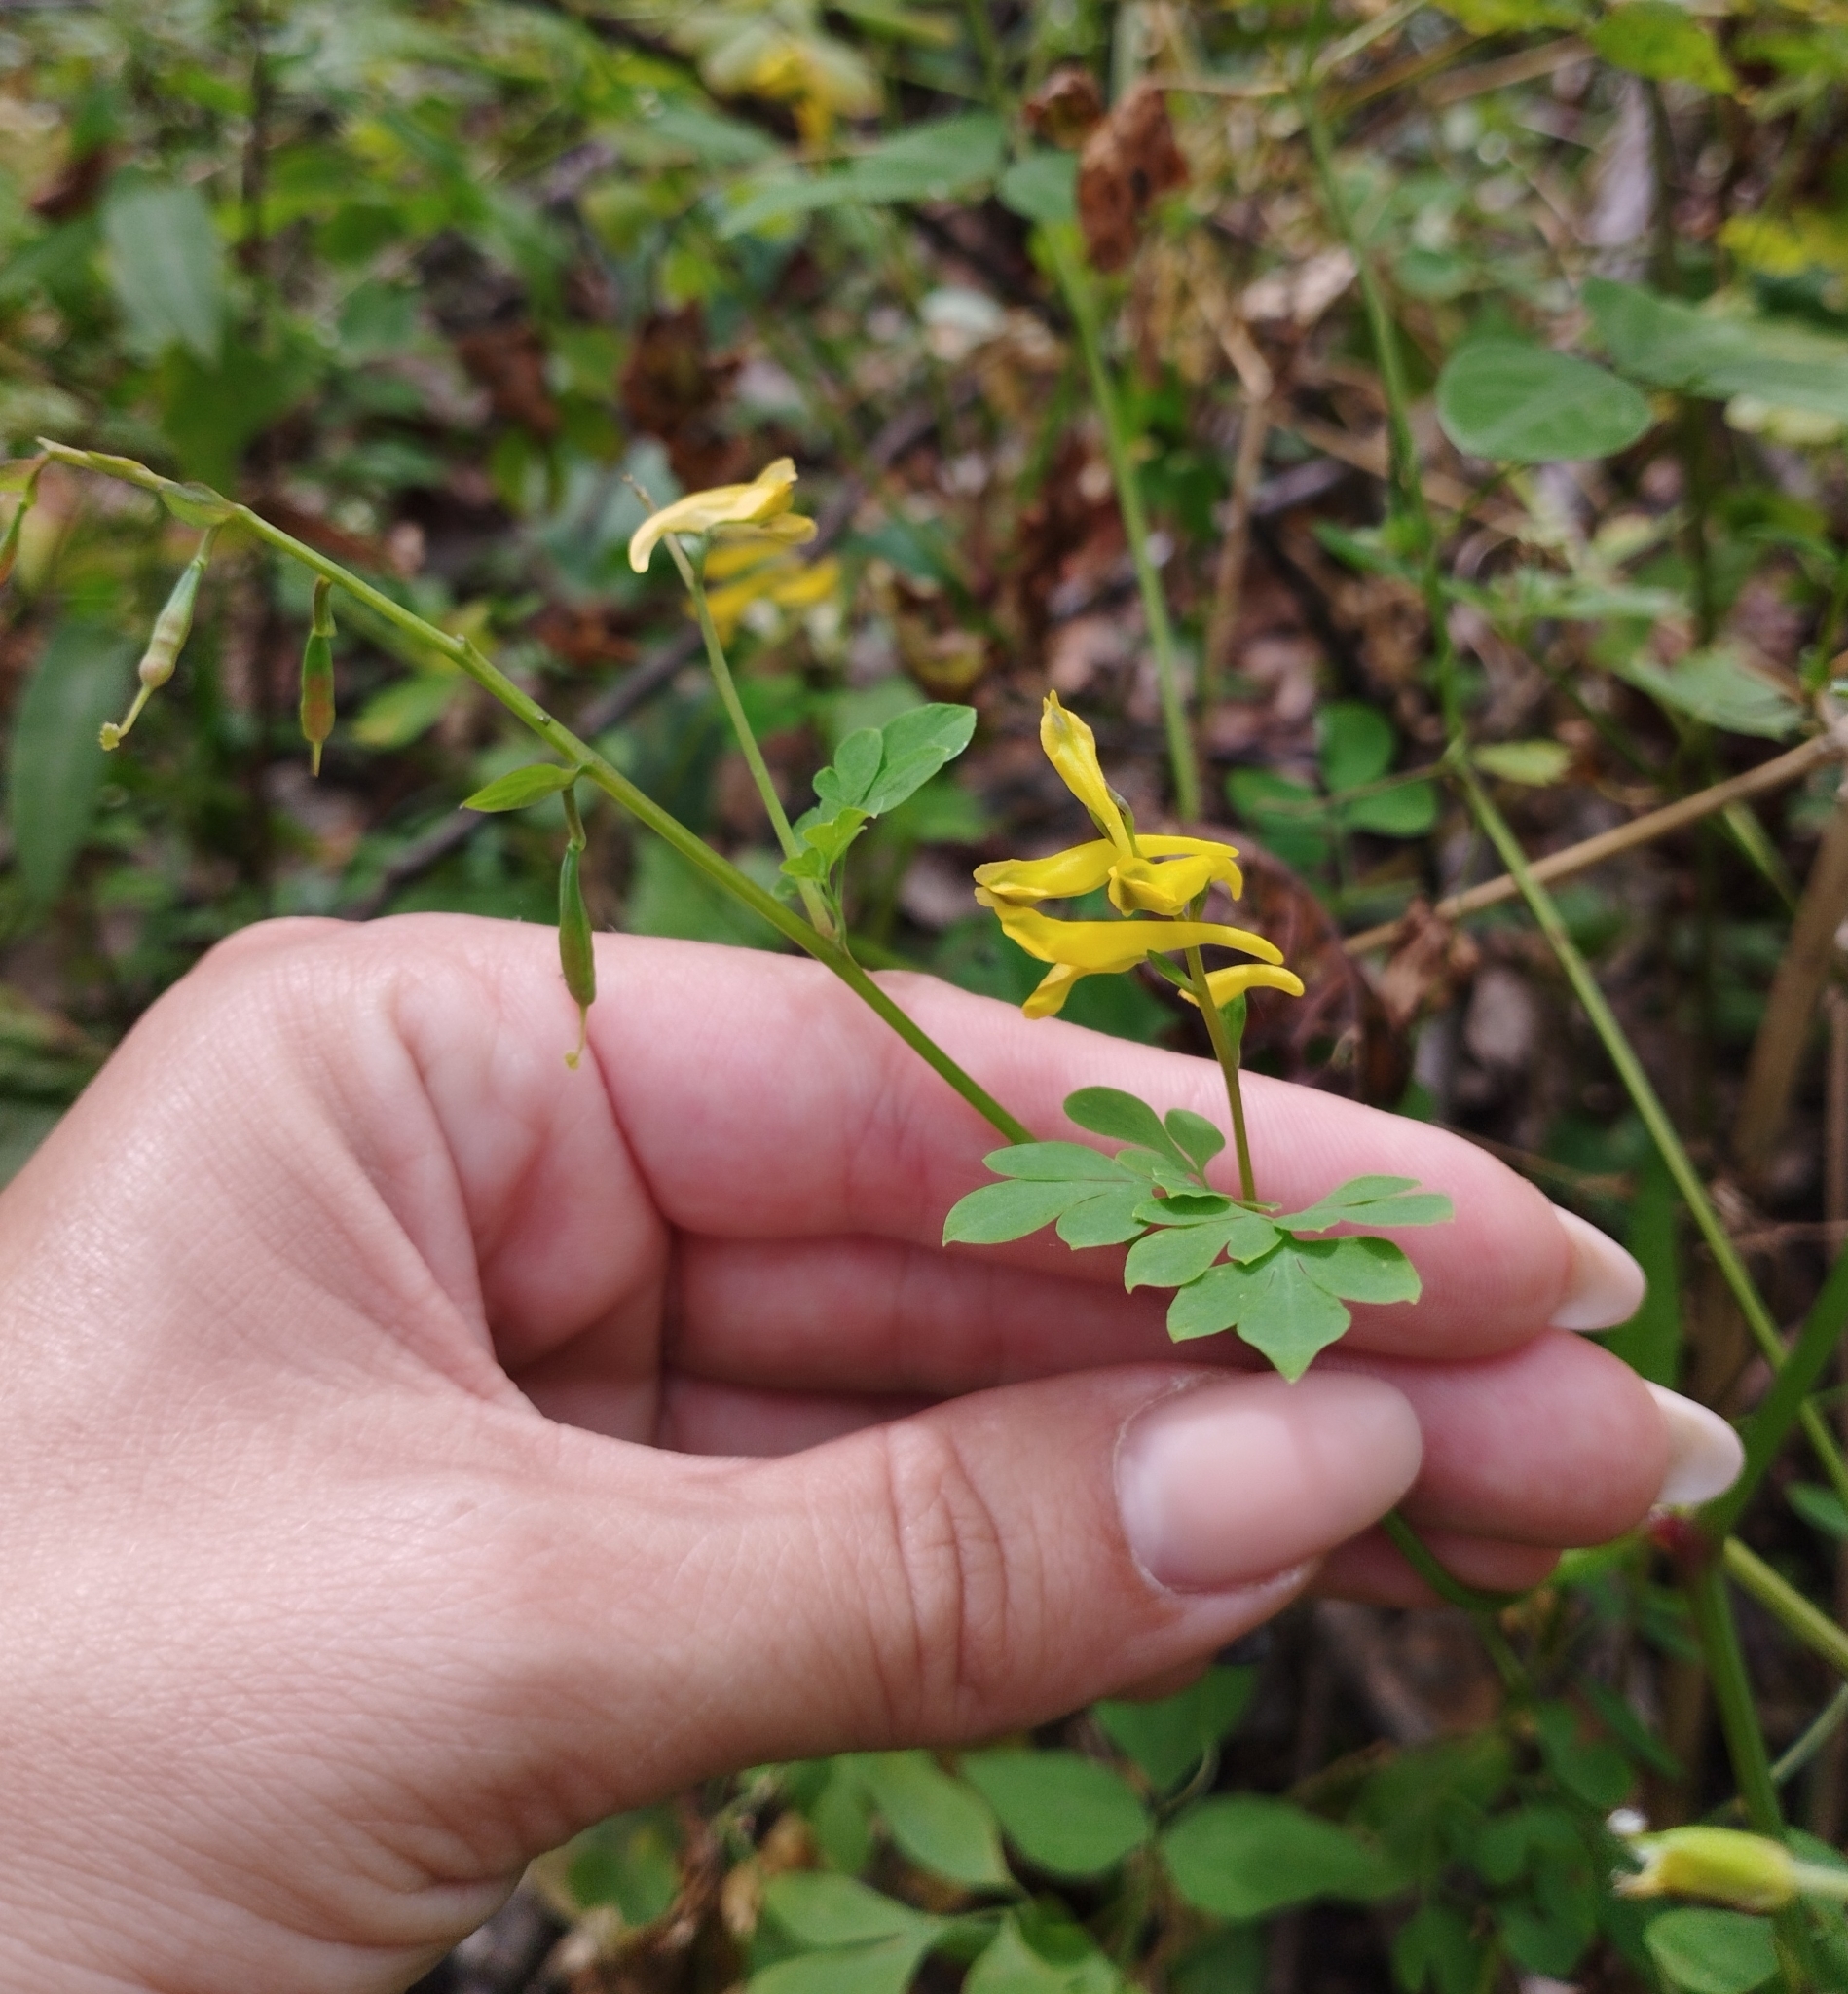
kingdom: Plantae
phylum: Tracheophyta
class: Magnoliopsida
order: Ranunculales
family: Papaveraceae
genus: Corydalis
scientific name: Corydalis ochotensis
